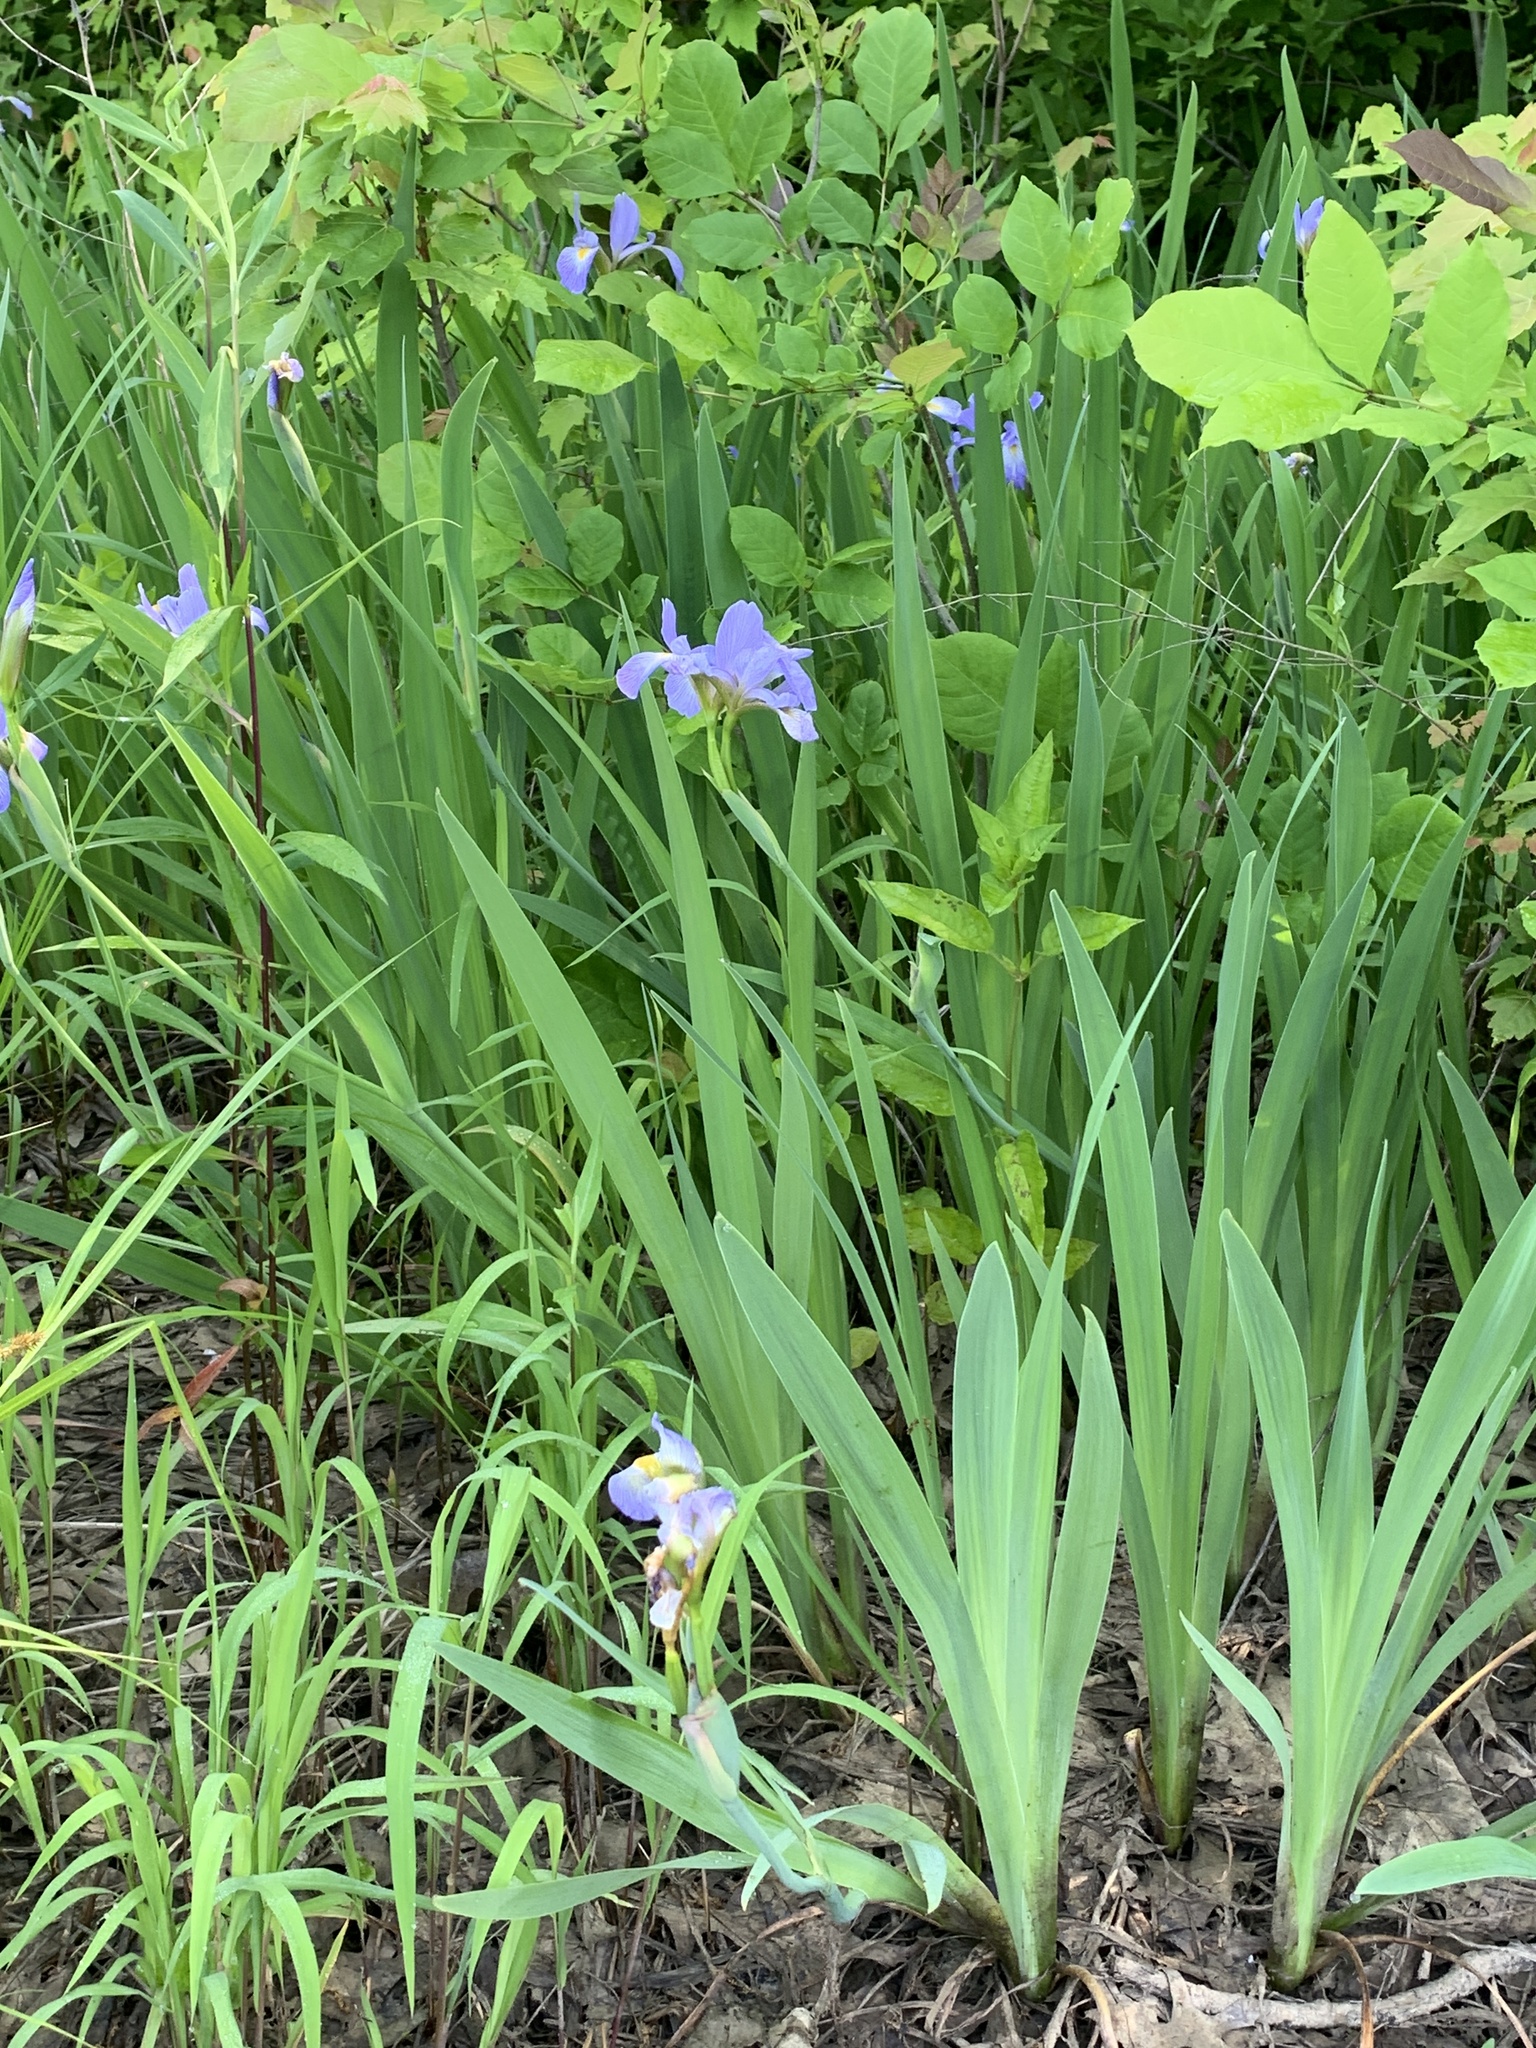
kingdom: Plantae
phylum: Tracheophyta
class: Liliopsida
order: Asparagales
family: Iridaceae
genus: Iris
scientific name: Iris virginica
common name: Southern blue flag
